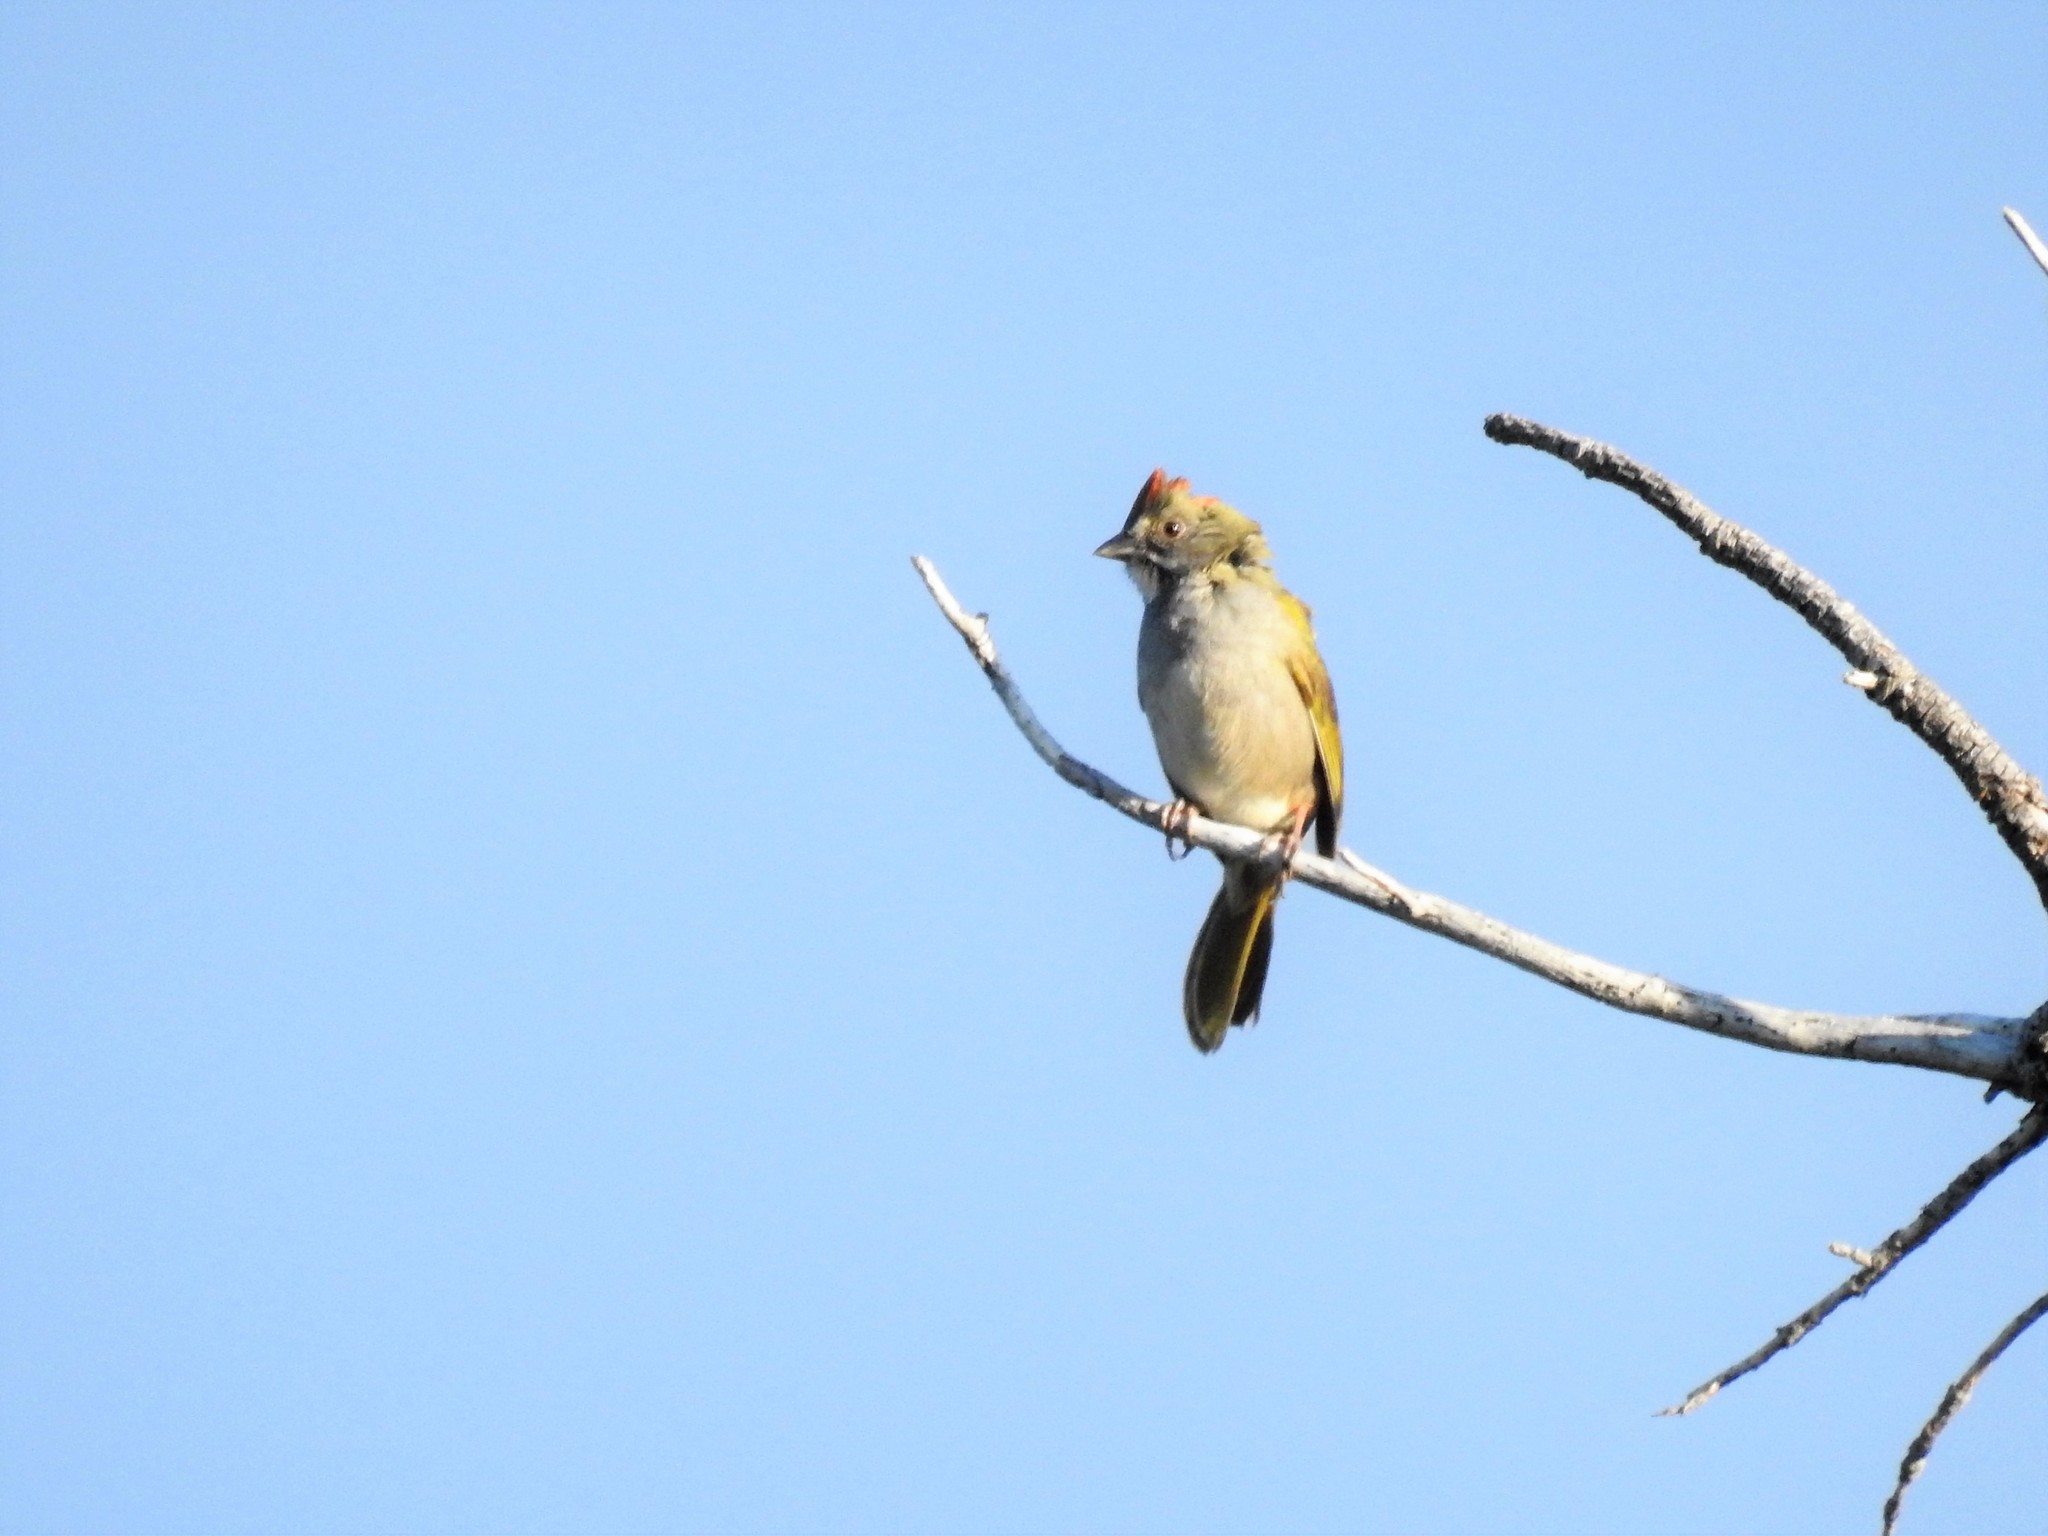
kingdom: Animalia
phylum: Chordata
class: Aves
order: Passeriformes
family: Passerellidae
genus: Pipilo
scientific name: Pipilo chlorurus
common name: Green-tailed towhee
